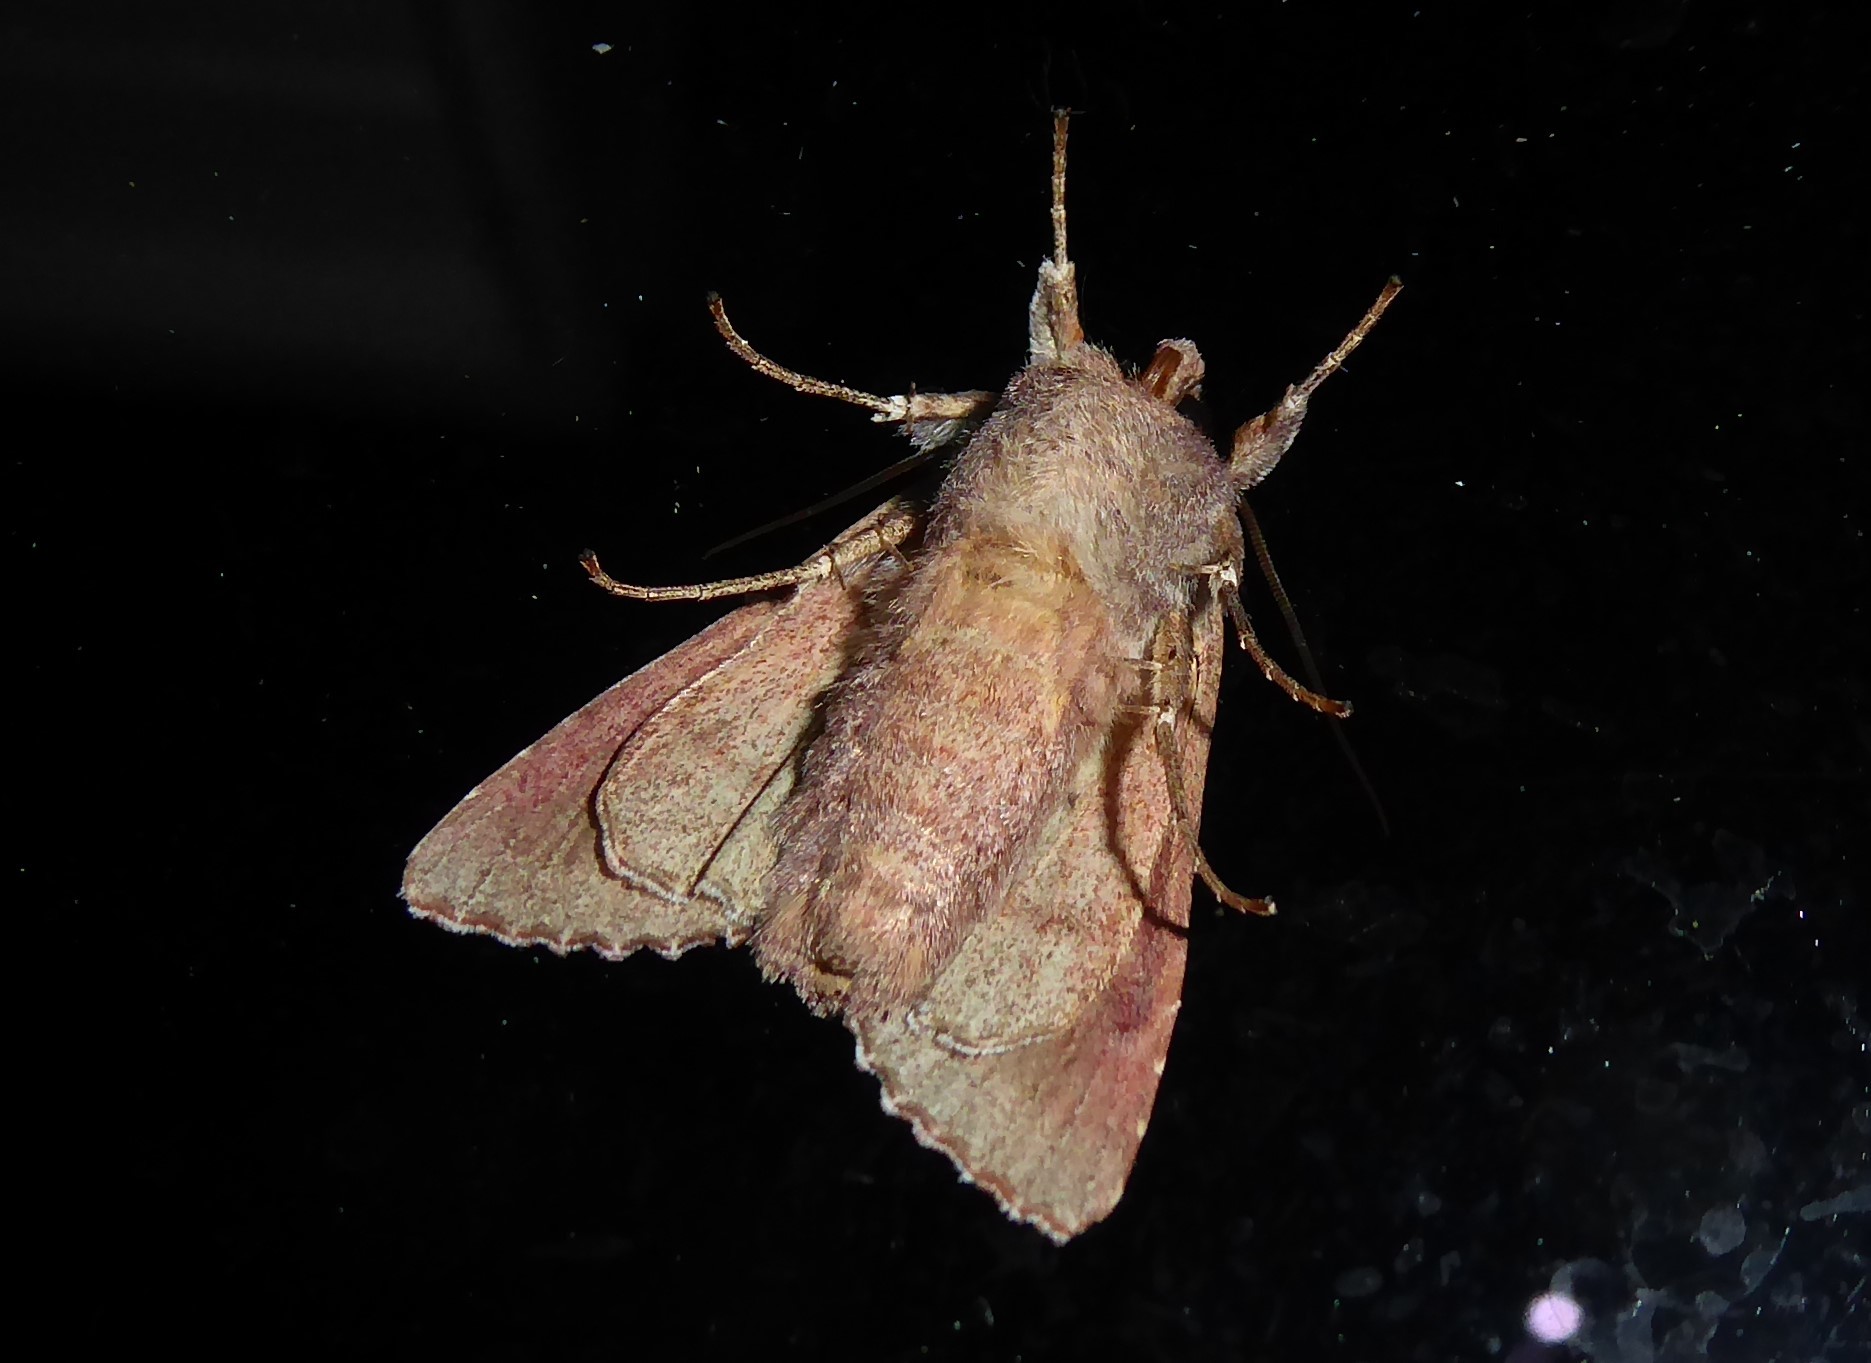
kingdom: Animalia
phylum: Arthropoda
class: Insecta
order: Lepidoptera
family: Noctuidae
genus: Ichneutica
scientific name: Ichneutica
